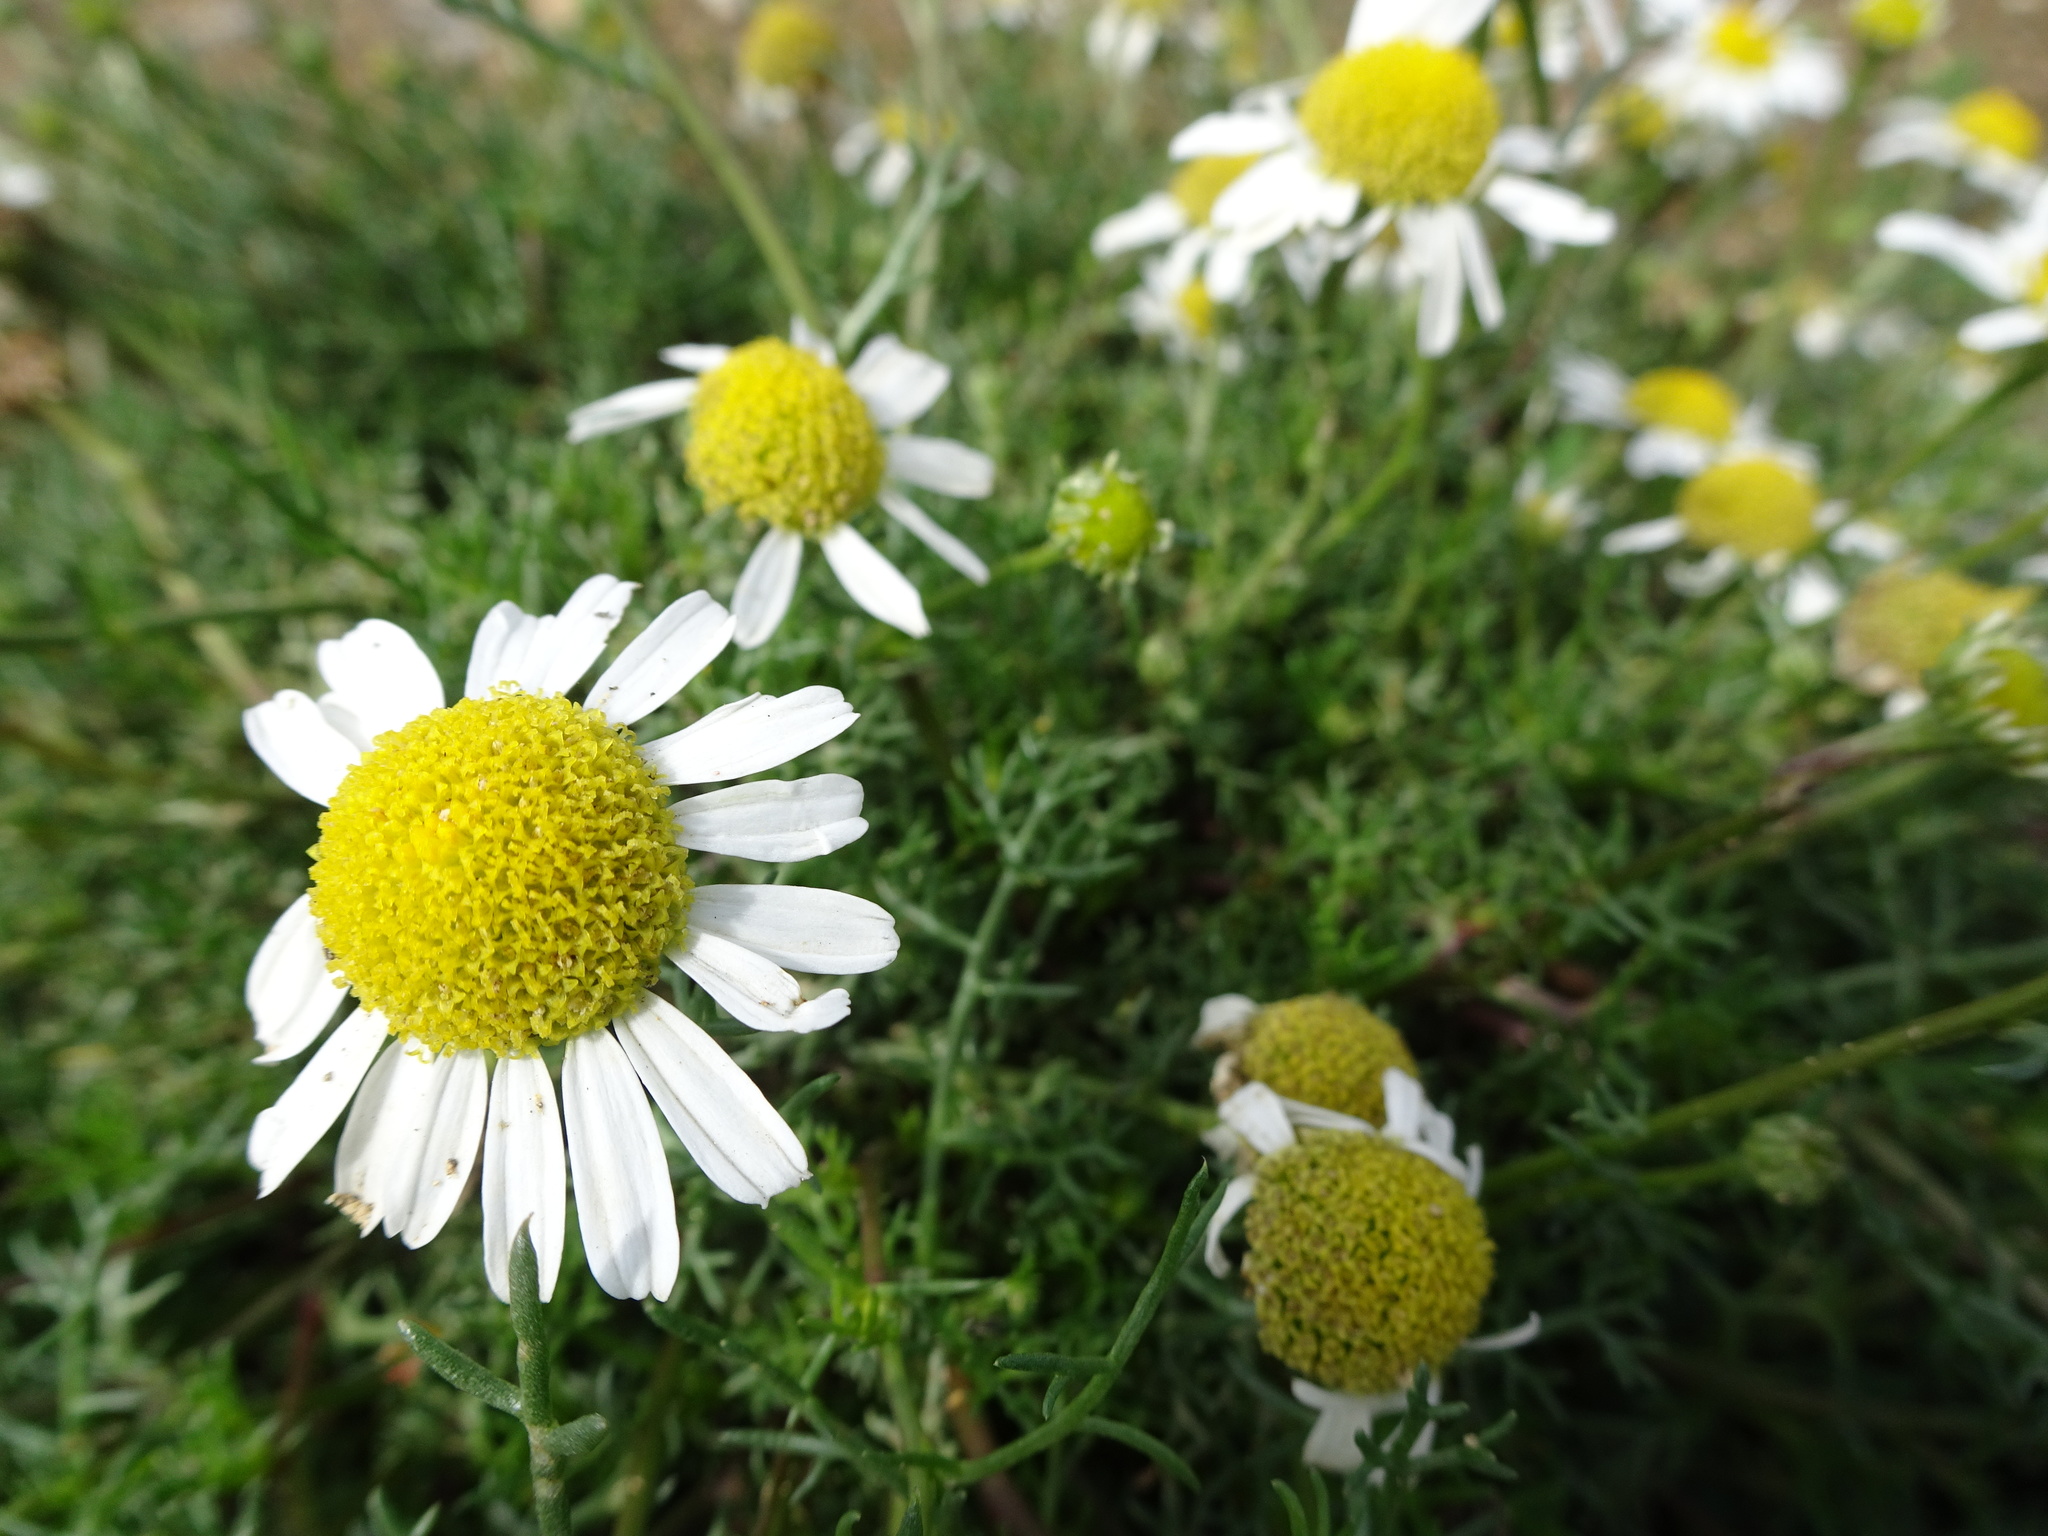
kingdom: Plantae
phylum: Tracheophyta
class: Magnoliopsida
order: Asterales
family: Asteraceae
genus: Tripleurospermum
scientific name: Tripleurospermum maritimum
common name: Sea mayweed
